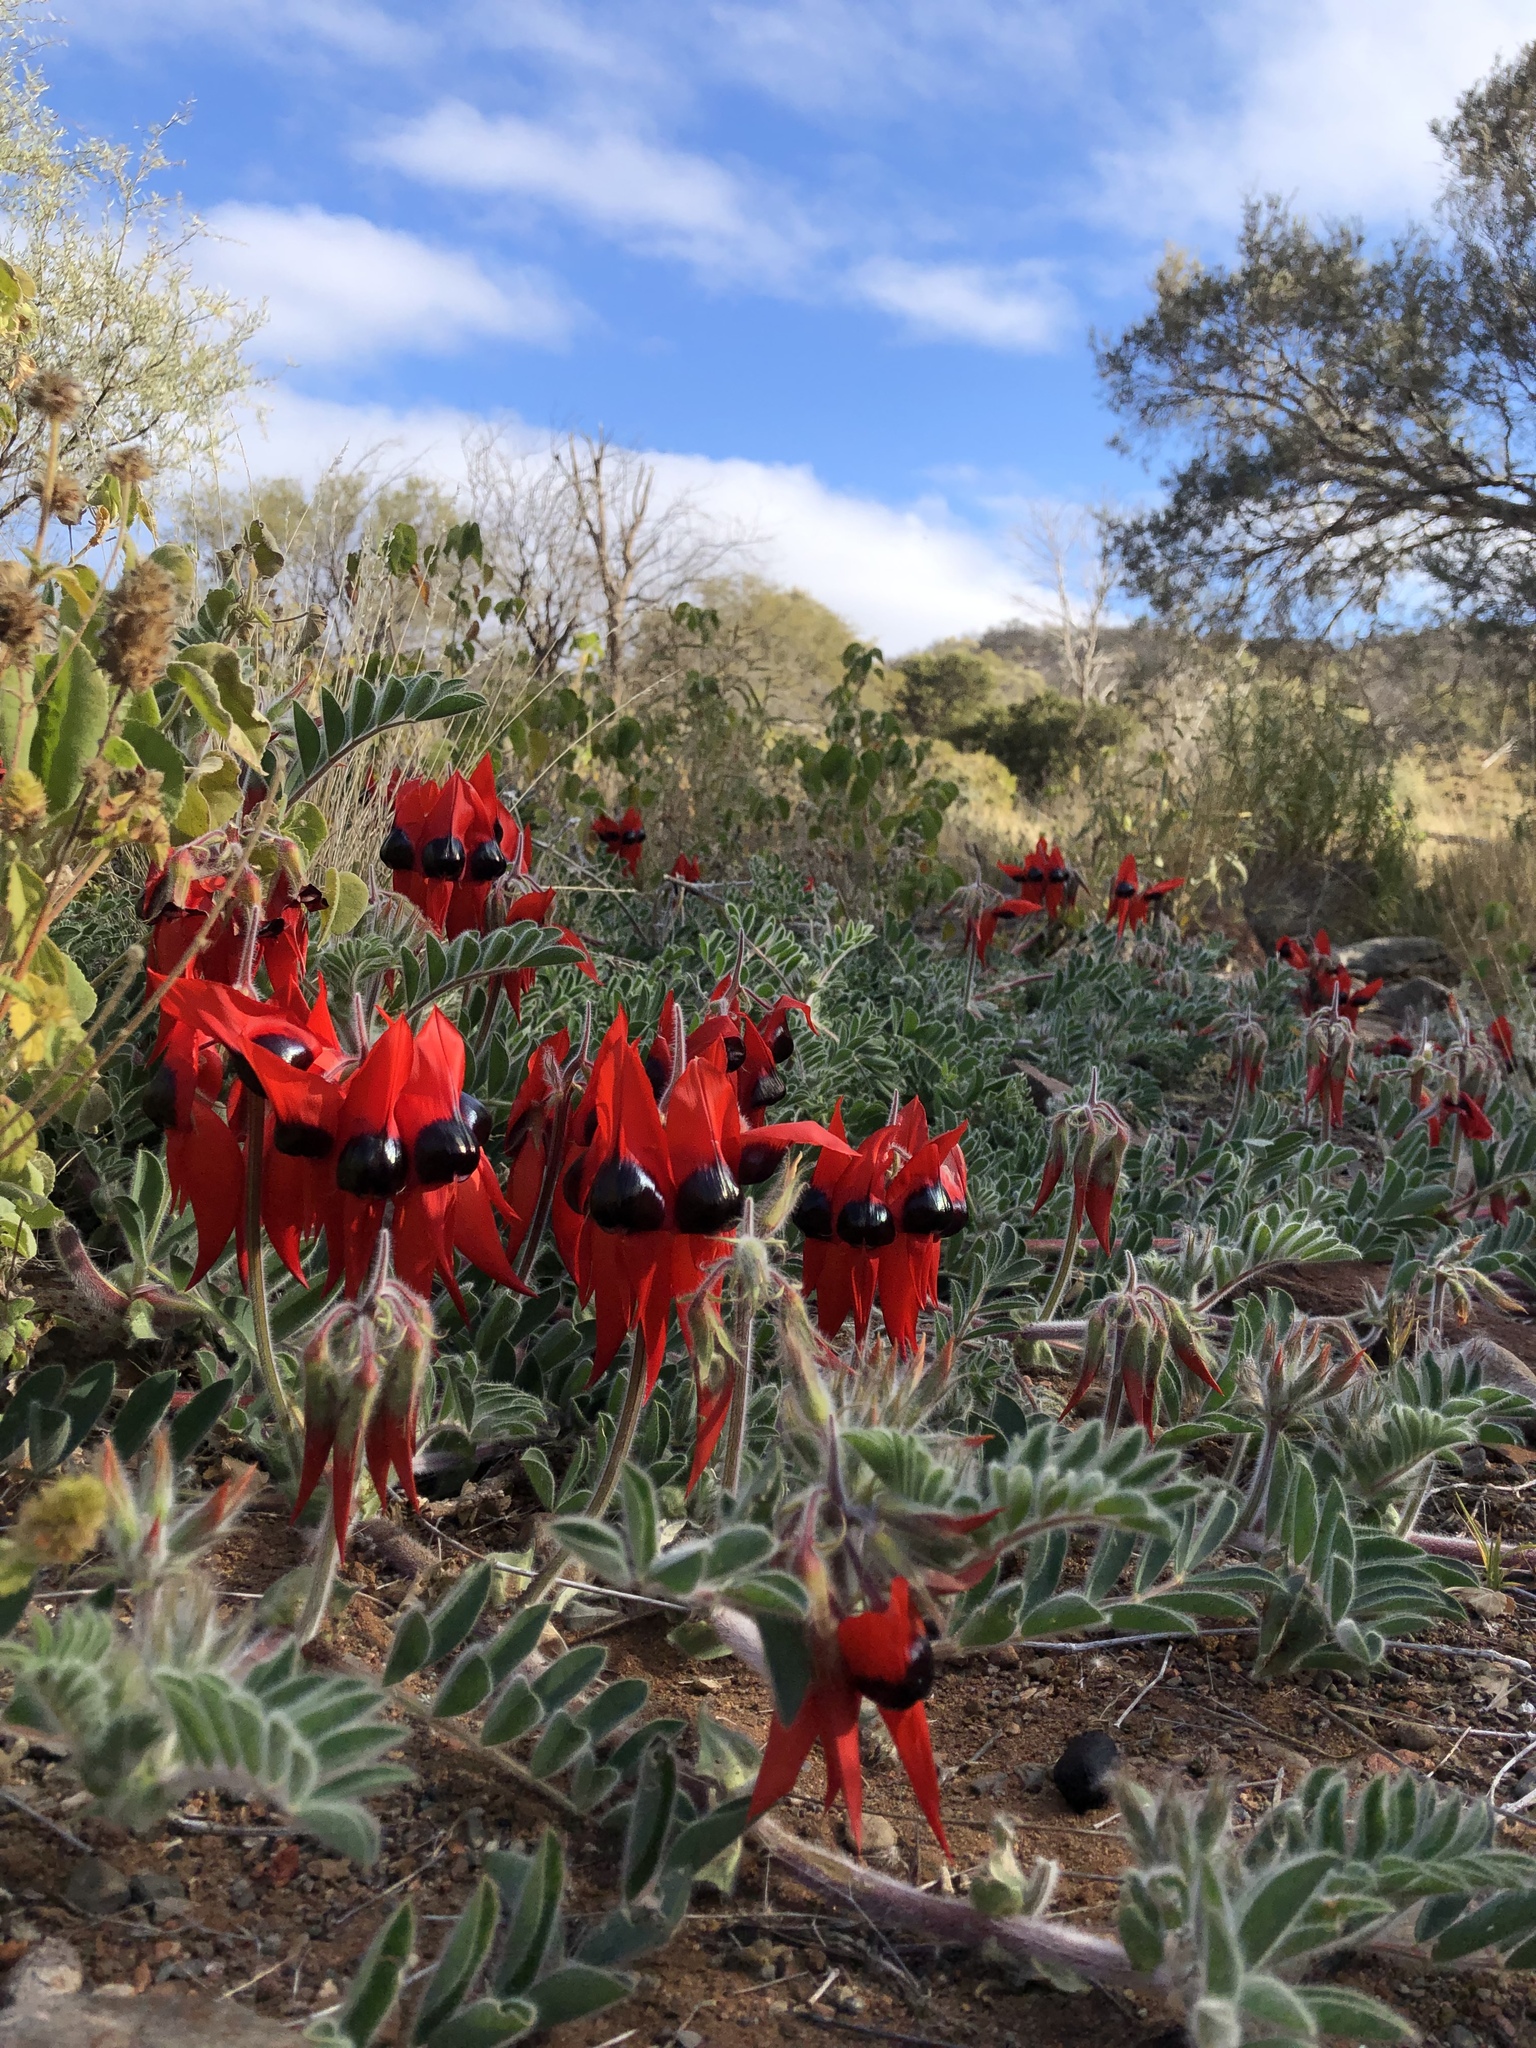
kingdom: Plantae
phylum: Tracheophyta
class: Magnoliopsida
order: Fabales
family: Fabaceae
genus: Swainsona
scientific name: Swainsona formosa
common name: Sturt's desert-pea
